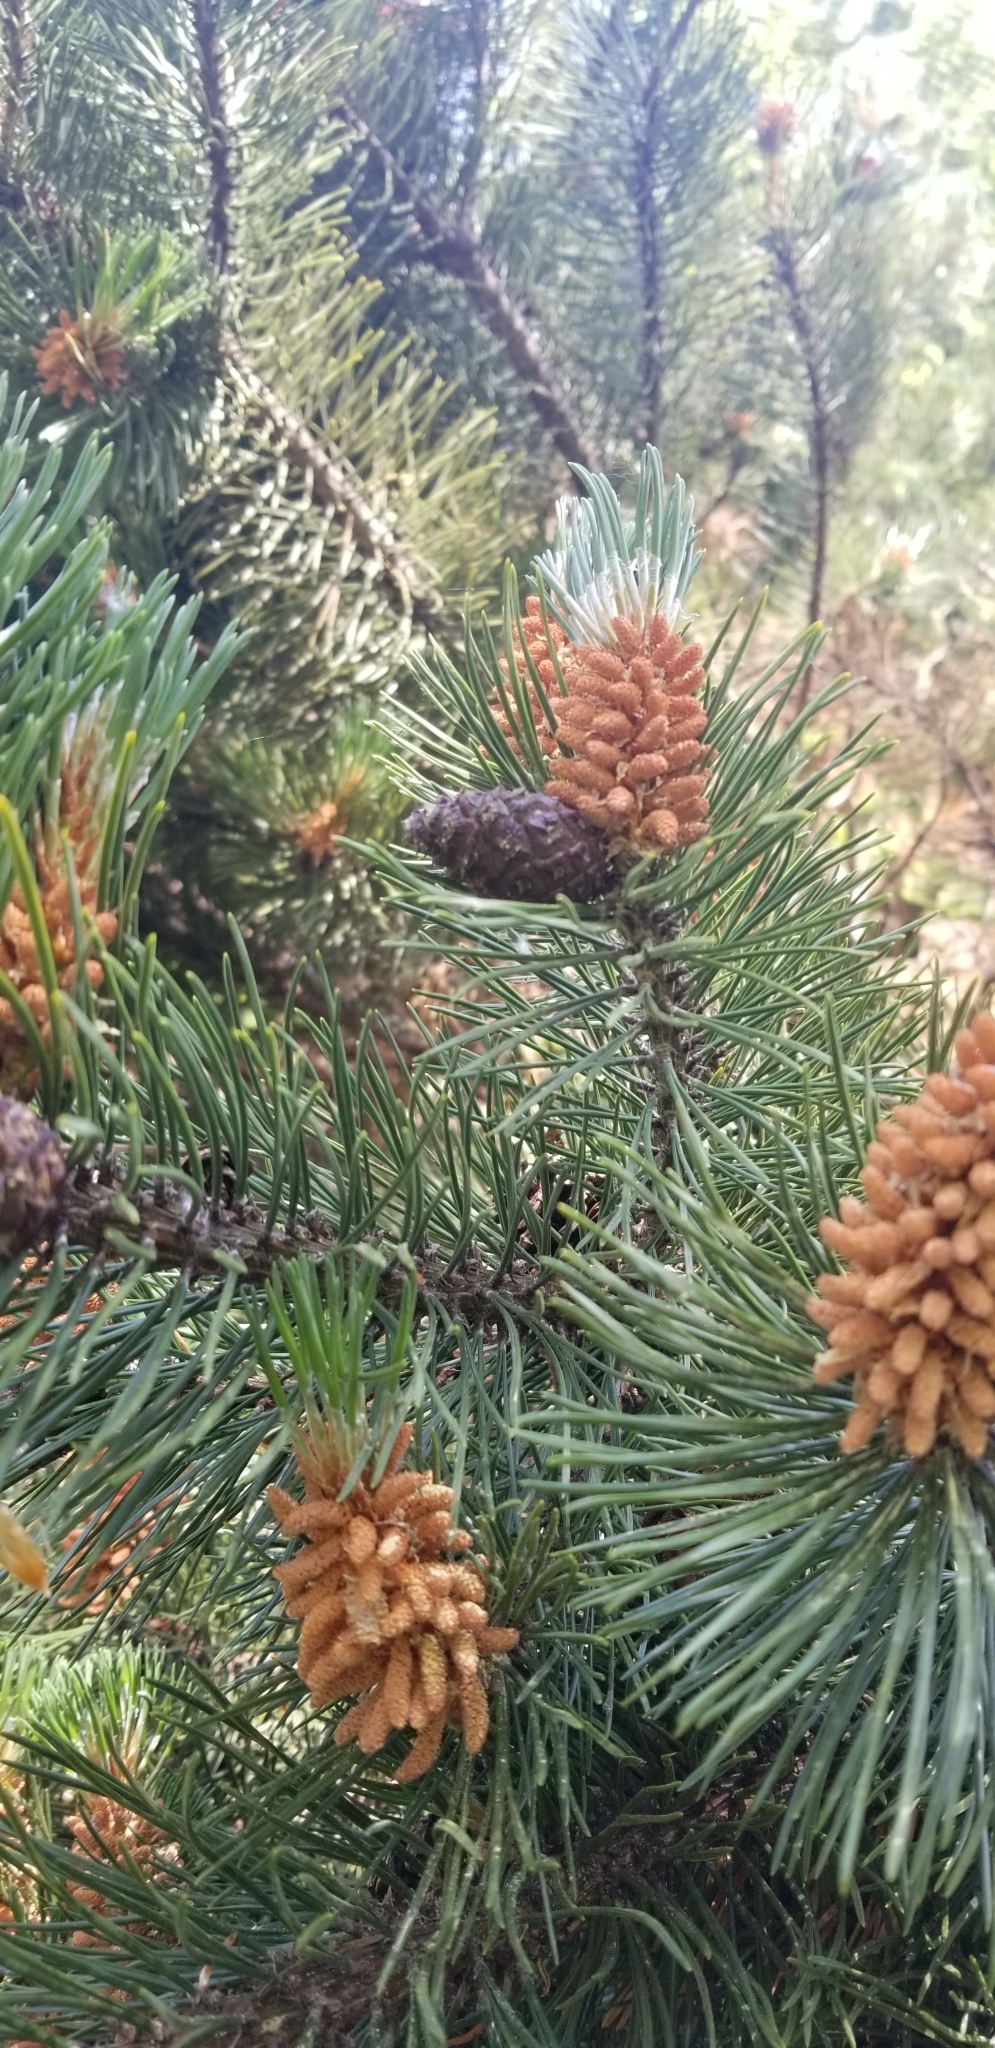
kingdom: Plantae
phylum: Tracheophyta
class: Pinopsida
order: Pinales
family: Pinaceae
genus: Pinus
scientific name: Pinus contorta
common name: Lodgepole pine
